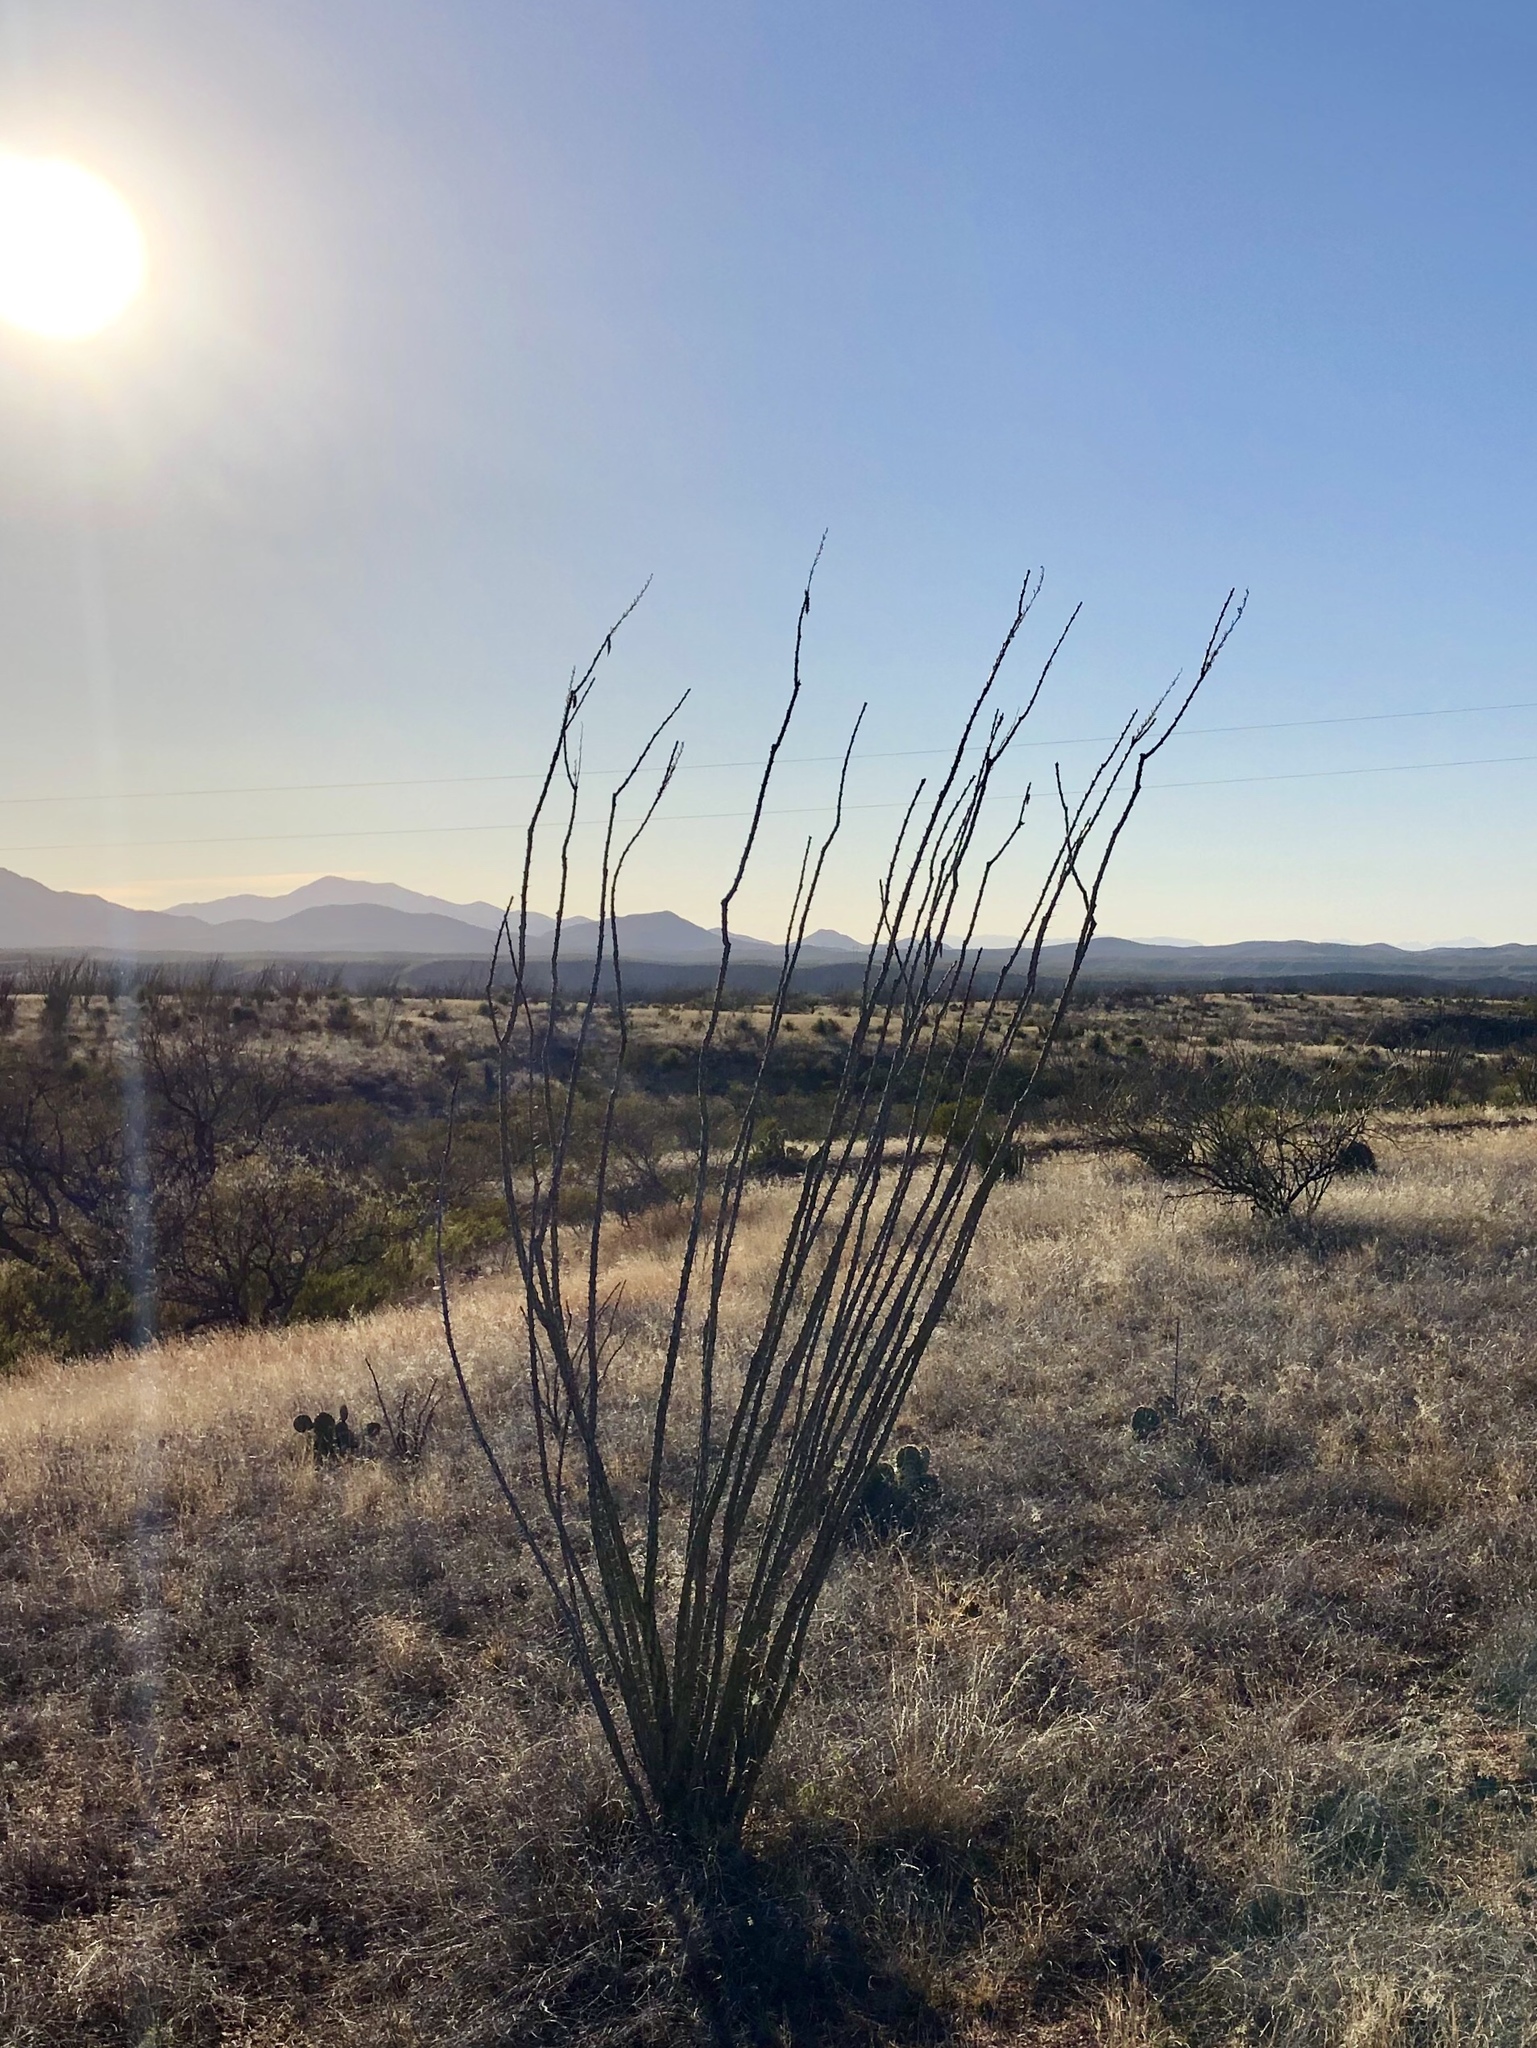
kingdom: Plantae
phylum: Tracheophyta
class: Magnoliopsida
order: Ericales
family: Fouquieriaceae
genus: Fouquieria
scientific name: Fouquieria splendens
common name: Vine-cactus
